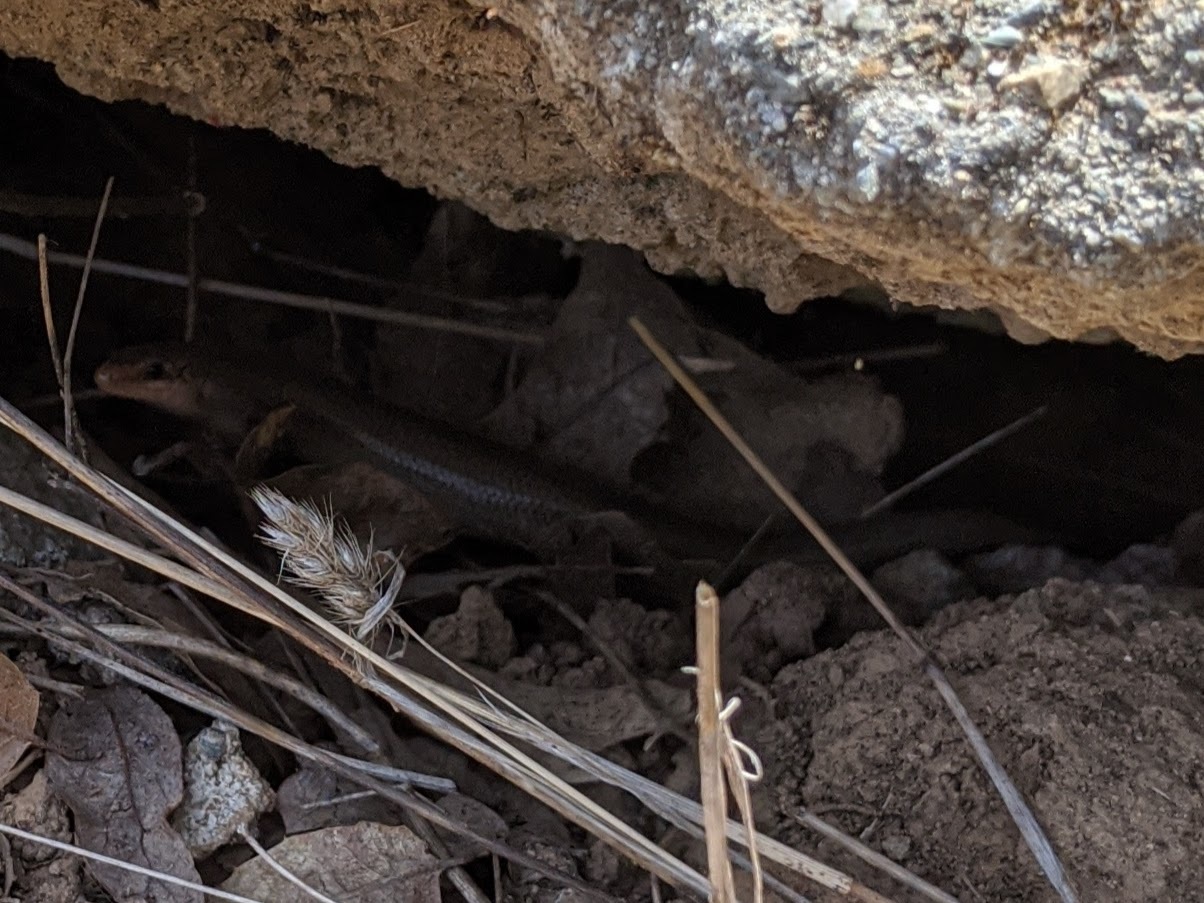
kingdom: Animalia
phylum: Chordata
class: Squamata
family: Scincidae
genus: Plestiodon
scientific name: Plestiodon gilberti
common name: Gilbert's skink
